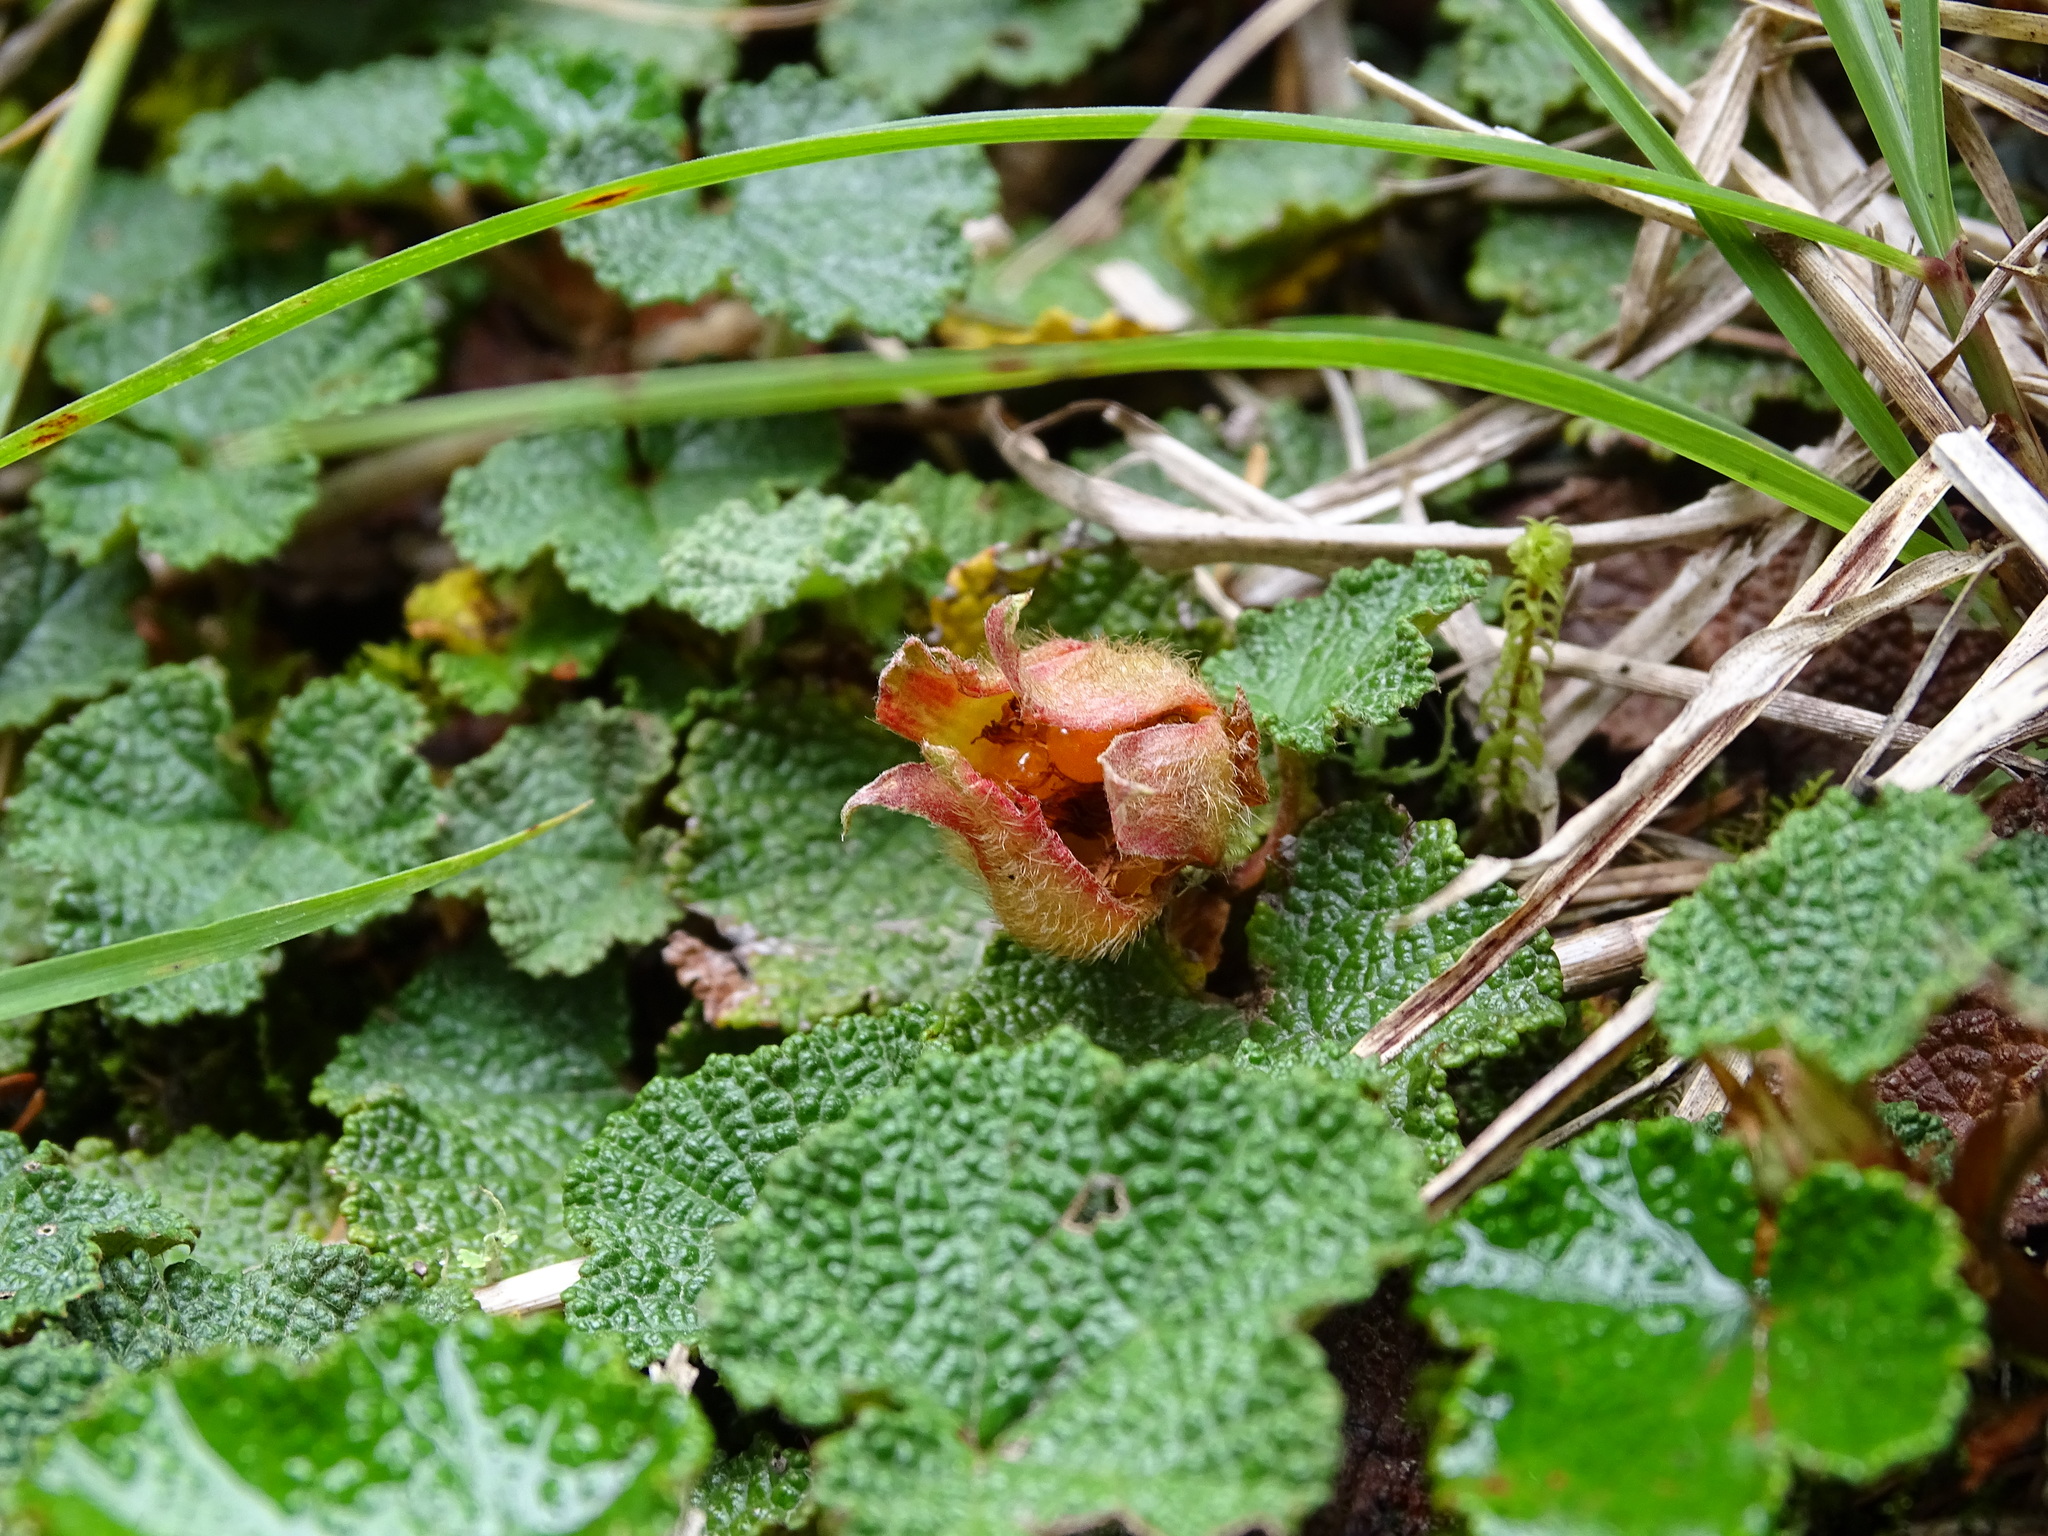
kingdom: Plantae
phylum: Tracheophyta
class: Magnoliopsida
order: Rosales
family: Rosaceae
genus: Rubus
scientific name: Rubus rolfei
